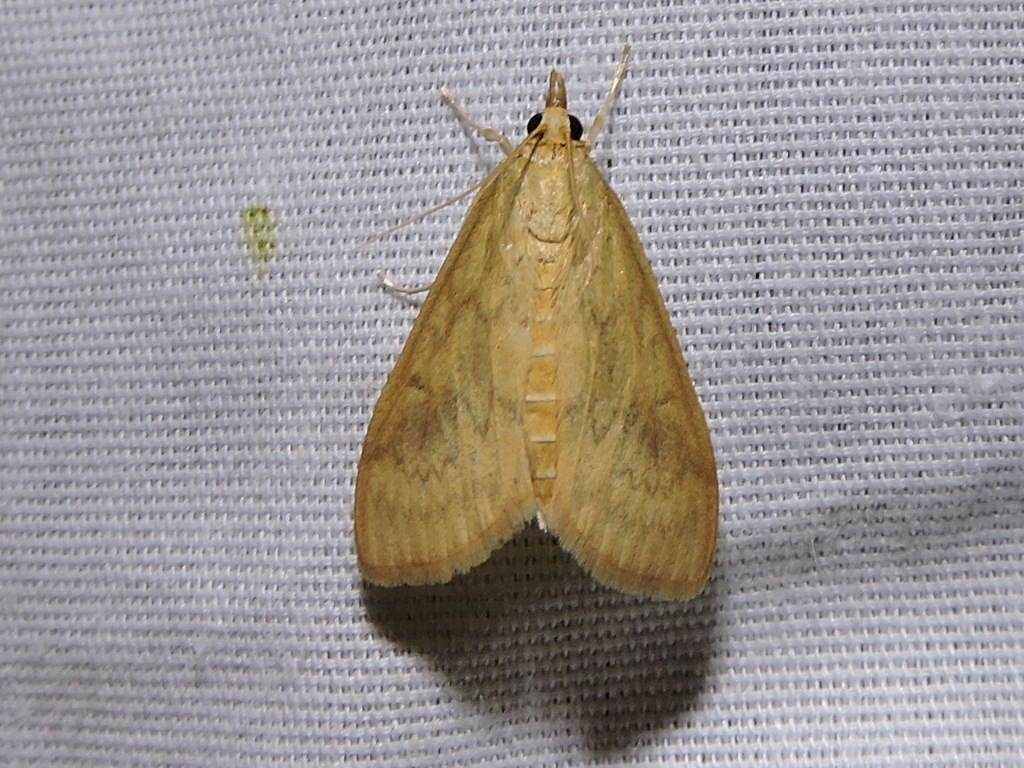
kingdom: Animalia
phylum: Arthropoda
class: Insecta
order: Lepidoptera
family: Crambidae
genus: Ostrinia
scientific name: Ostrinia penitalis
